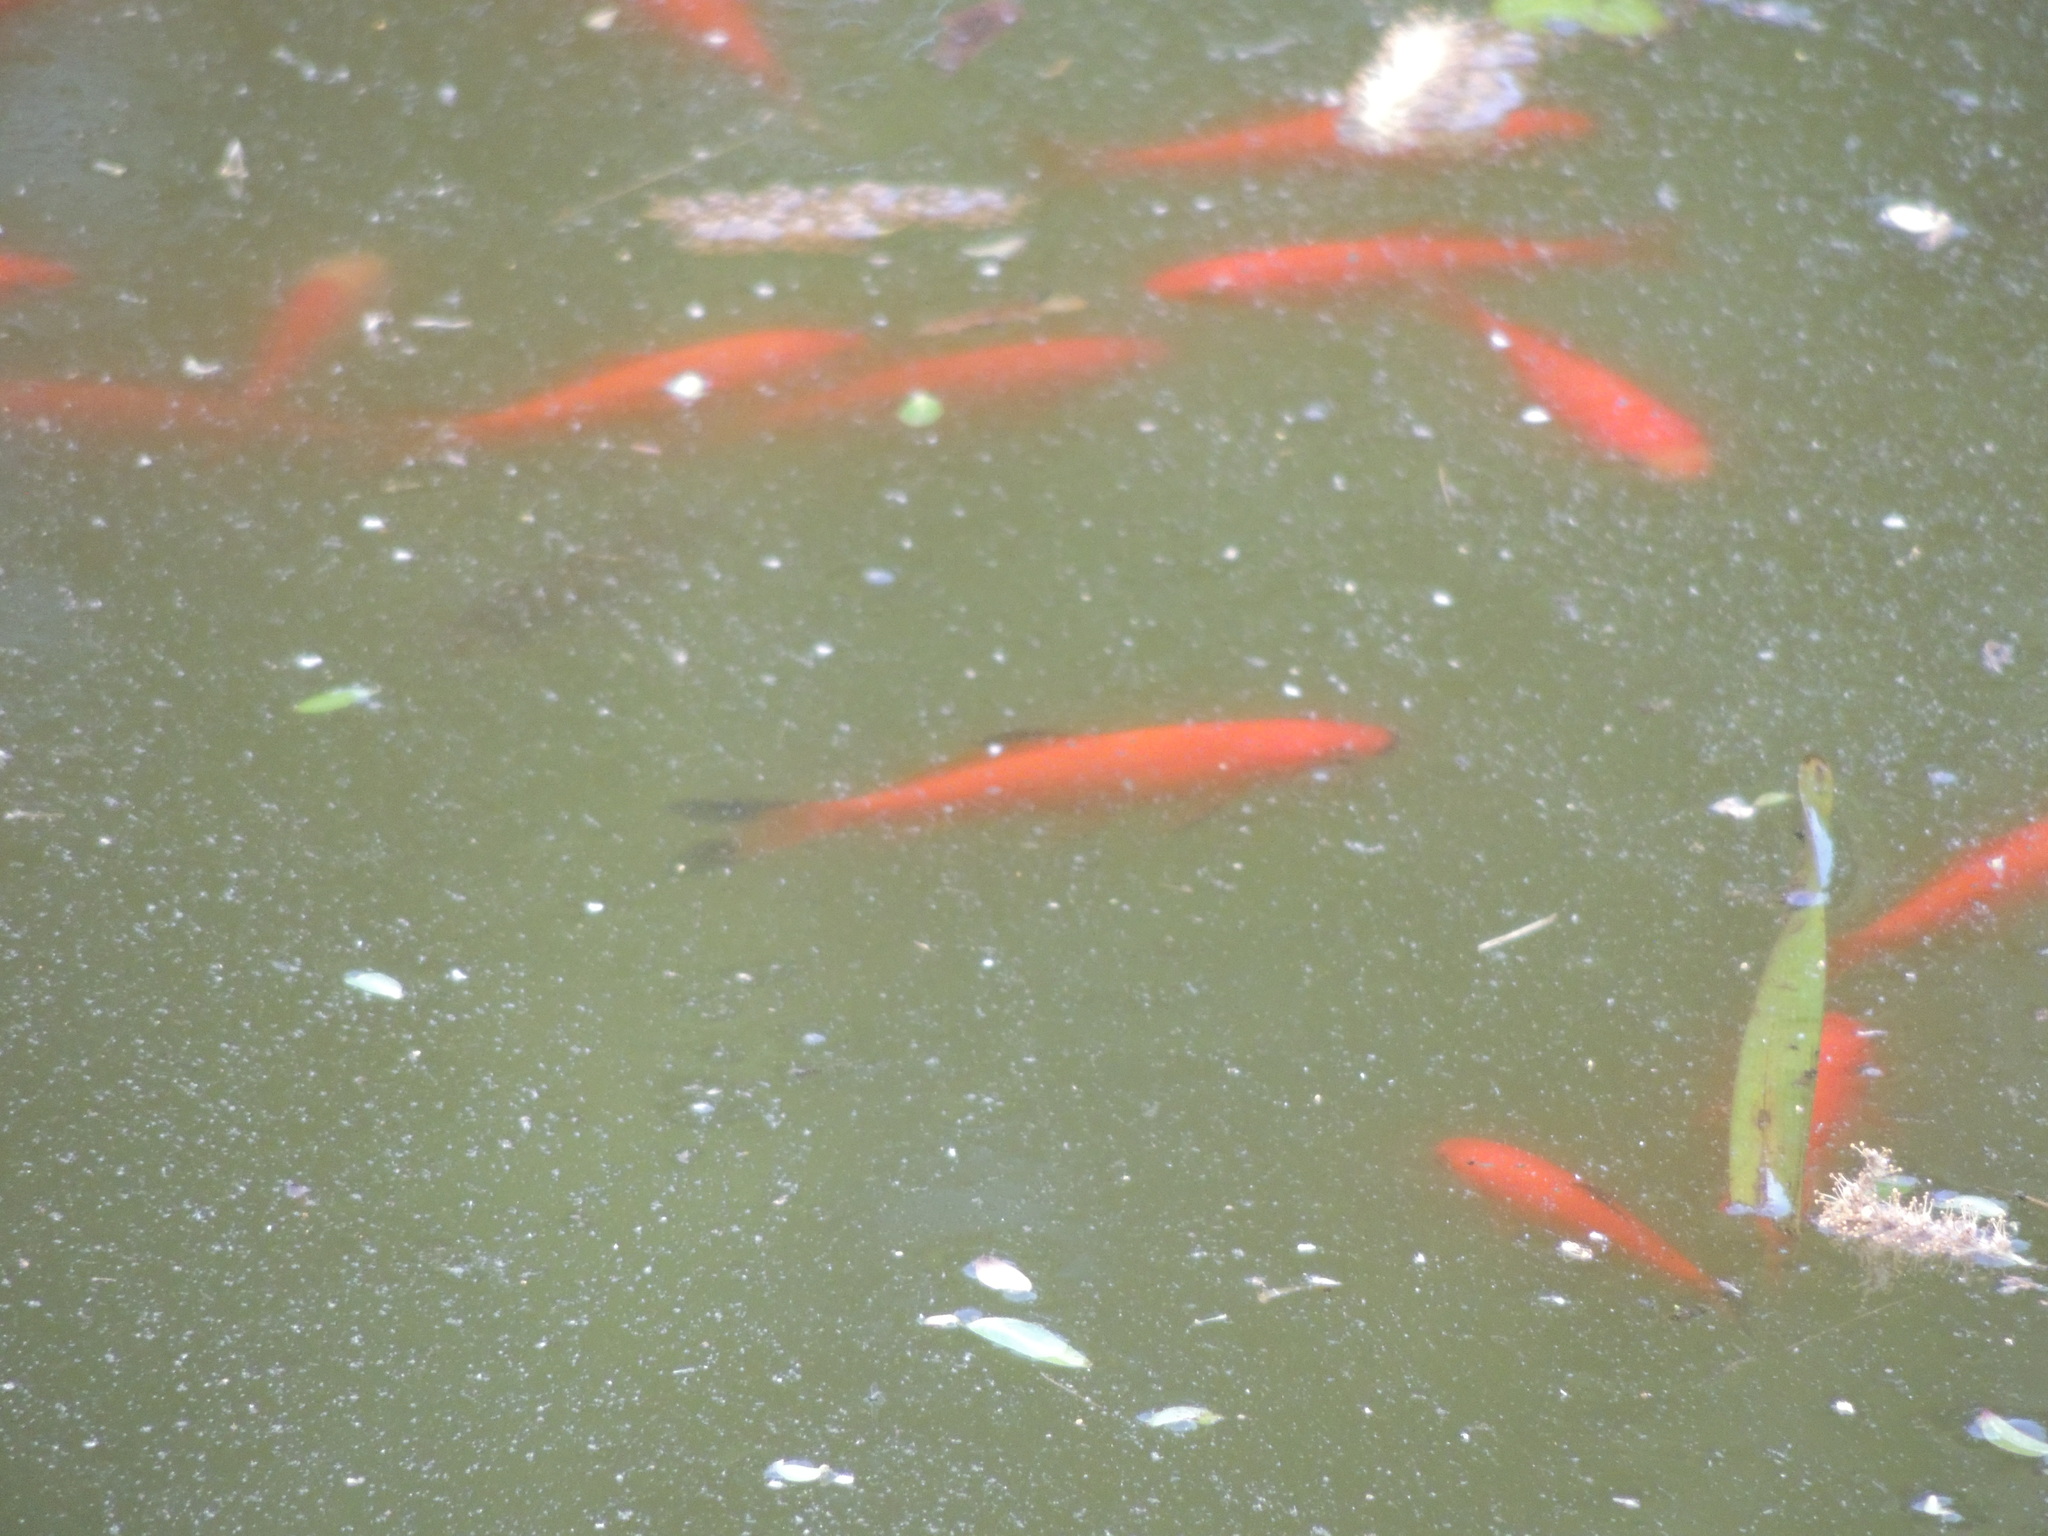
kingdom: Animalia
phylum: Chordata
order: Cypriniformes
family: Cyprinidae
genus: Carassius
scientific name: Carassius auratus
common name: Goldfish
